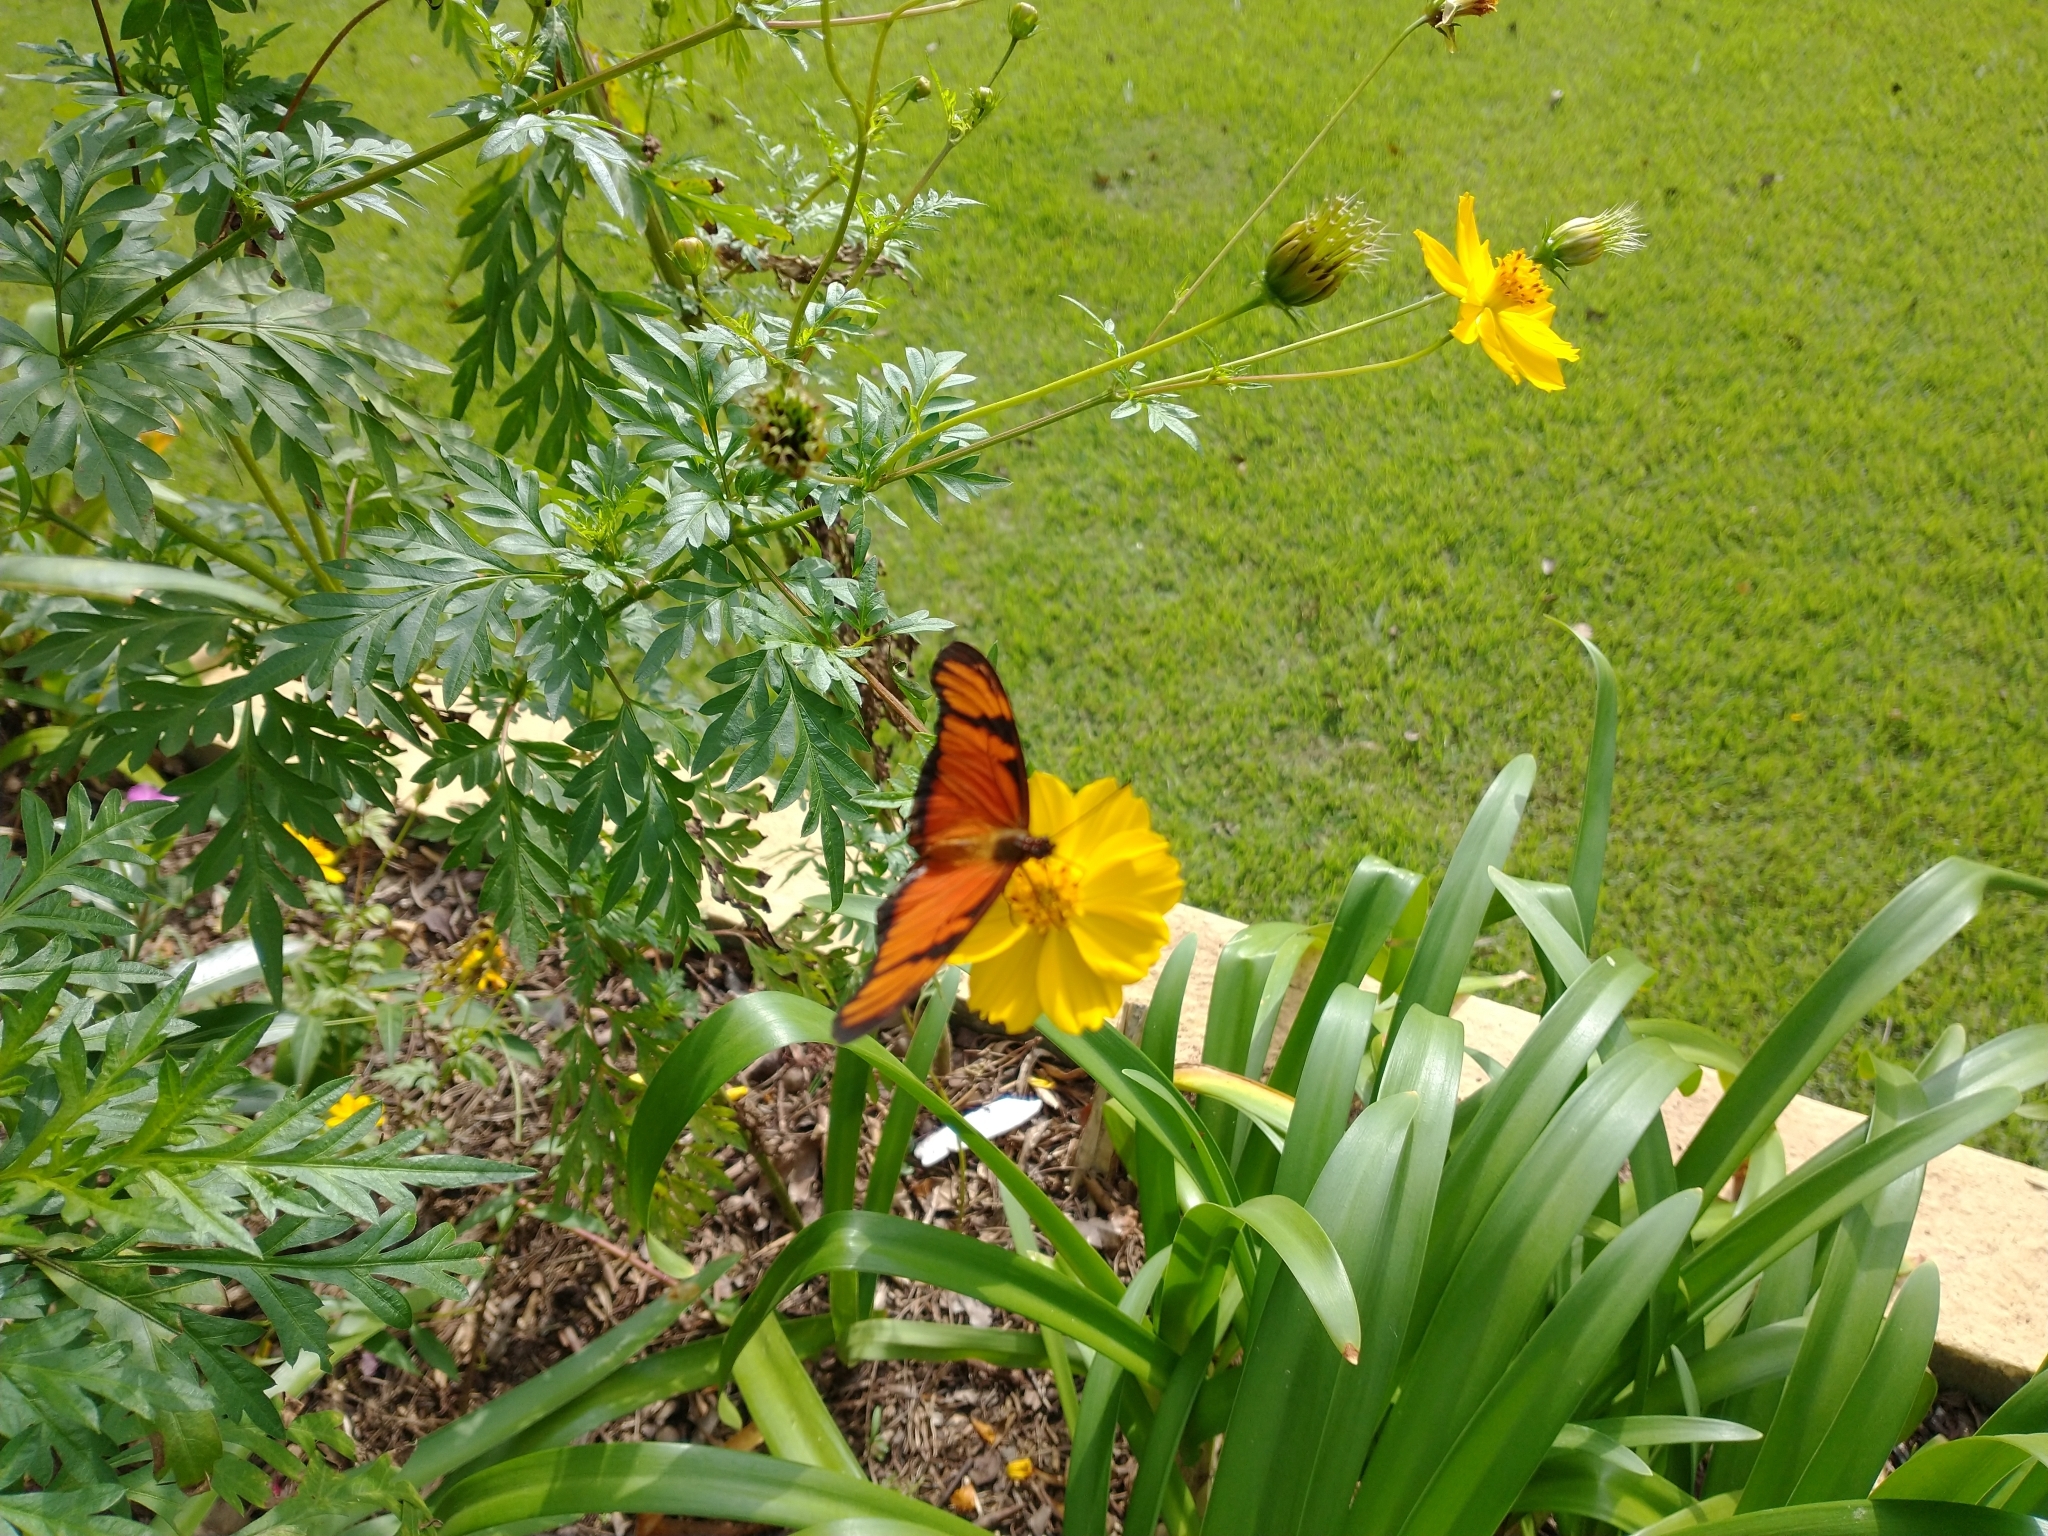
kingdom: Animalia
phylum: Arthropoda
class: Insecta
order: Lepidoptera
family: Nymphalidae
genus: Dione
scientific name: Dione juno
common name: Juno silverspot
